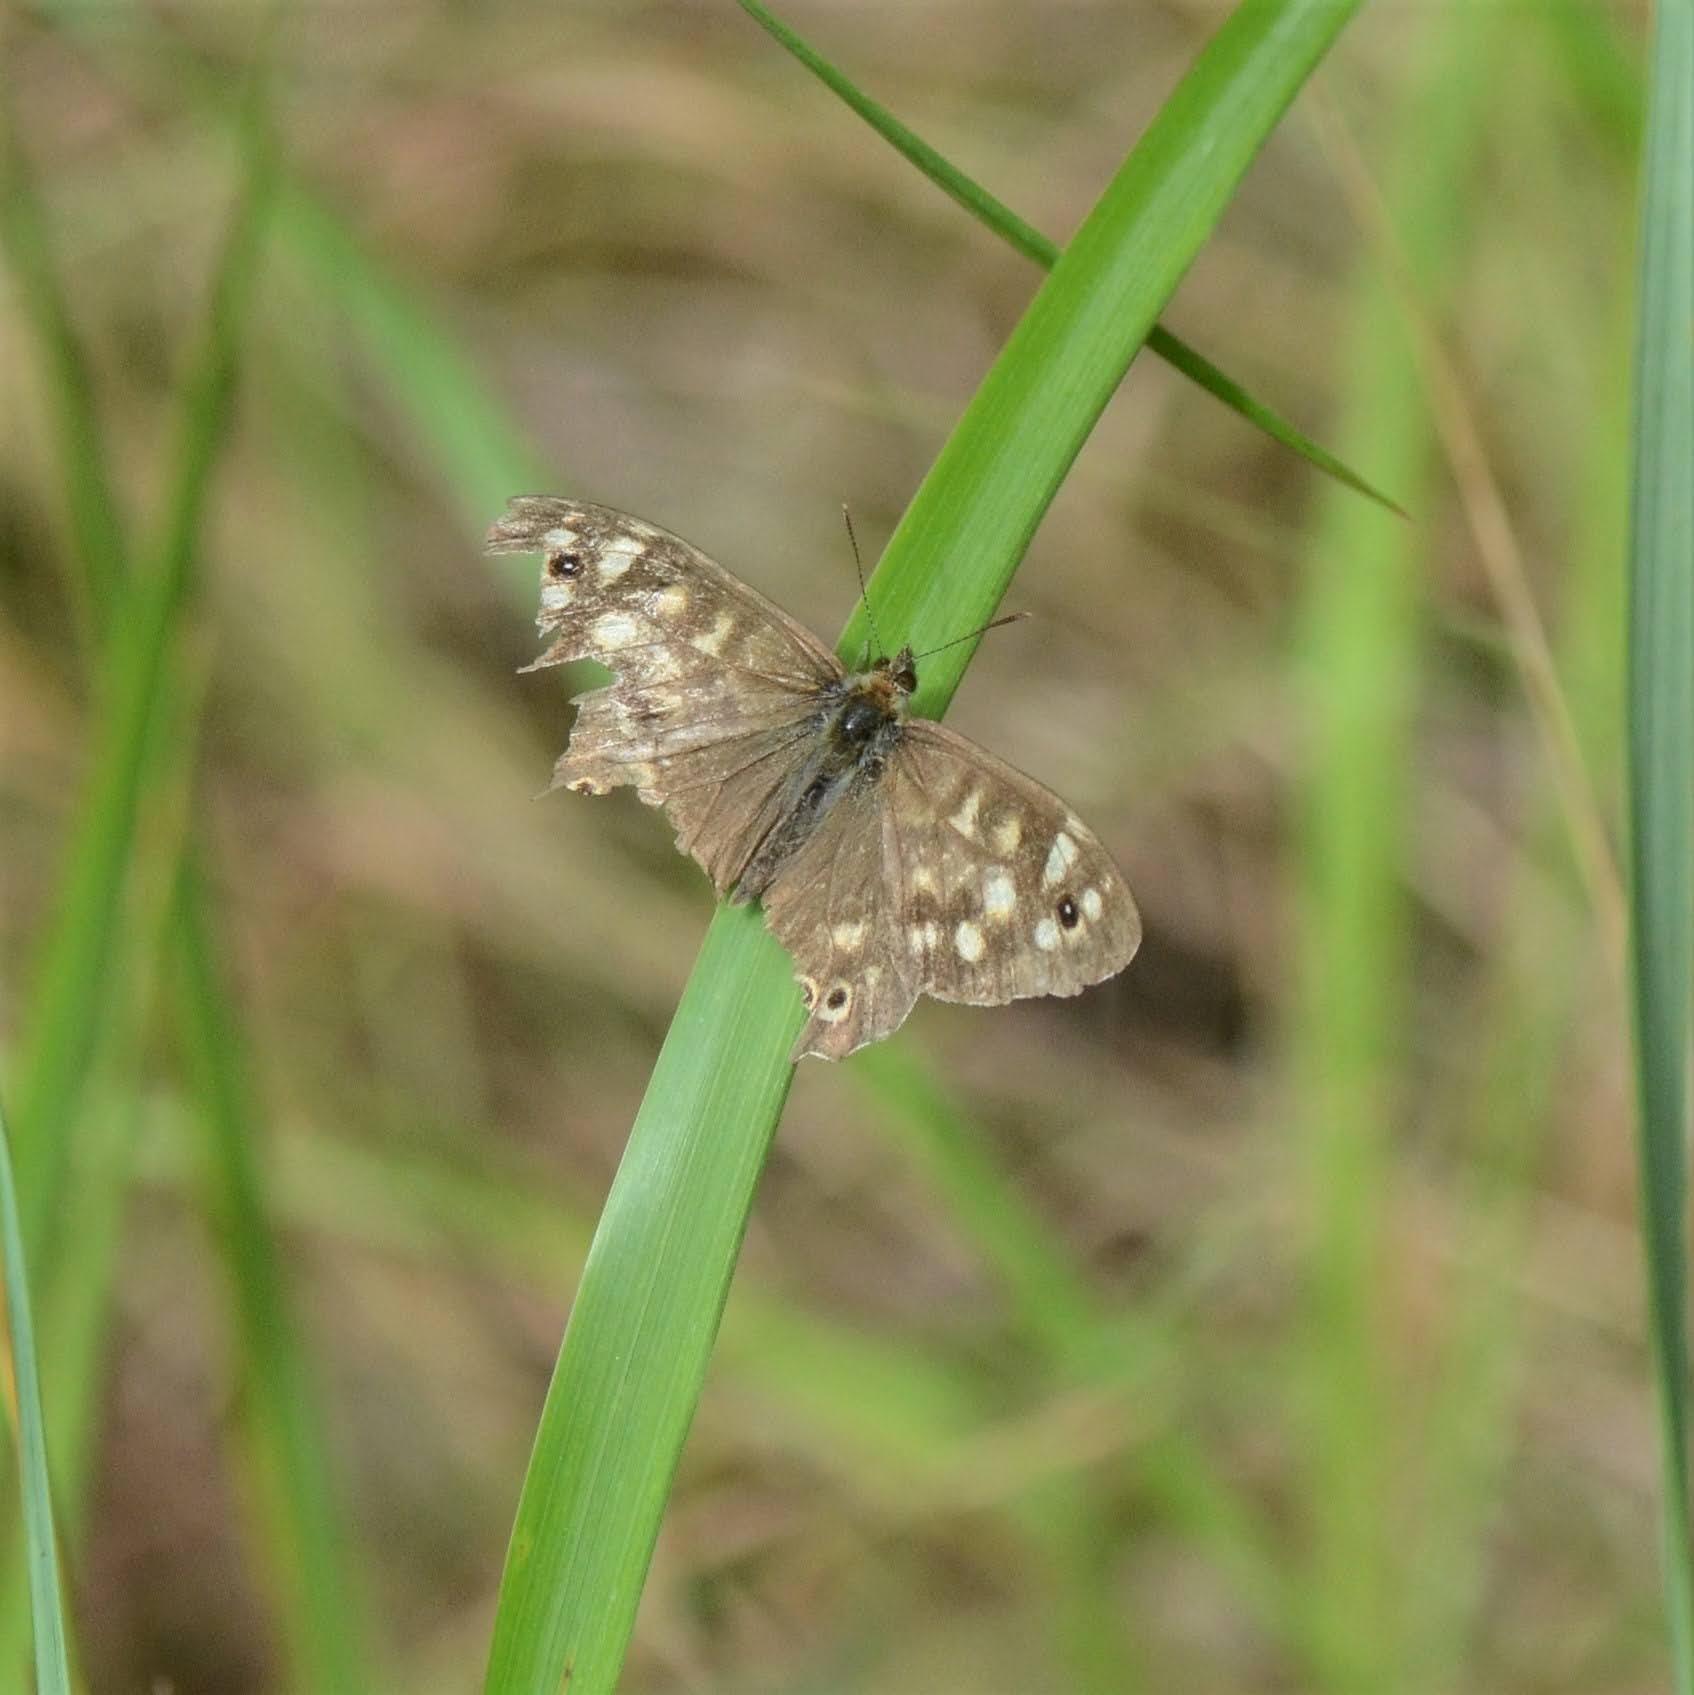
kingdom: Animalia
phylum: Arthropoda
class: Insecta
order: Lepidoptera
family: Nymphalidae
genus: Pararge
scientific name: Pararge aegeria
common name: Speckled wood
